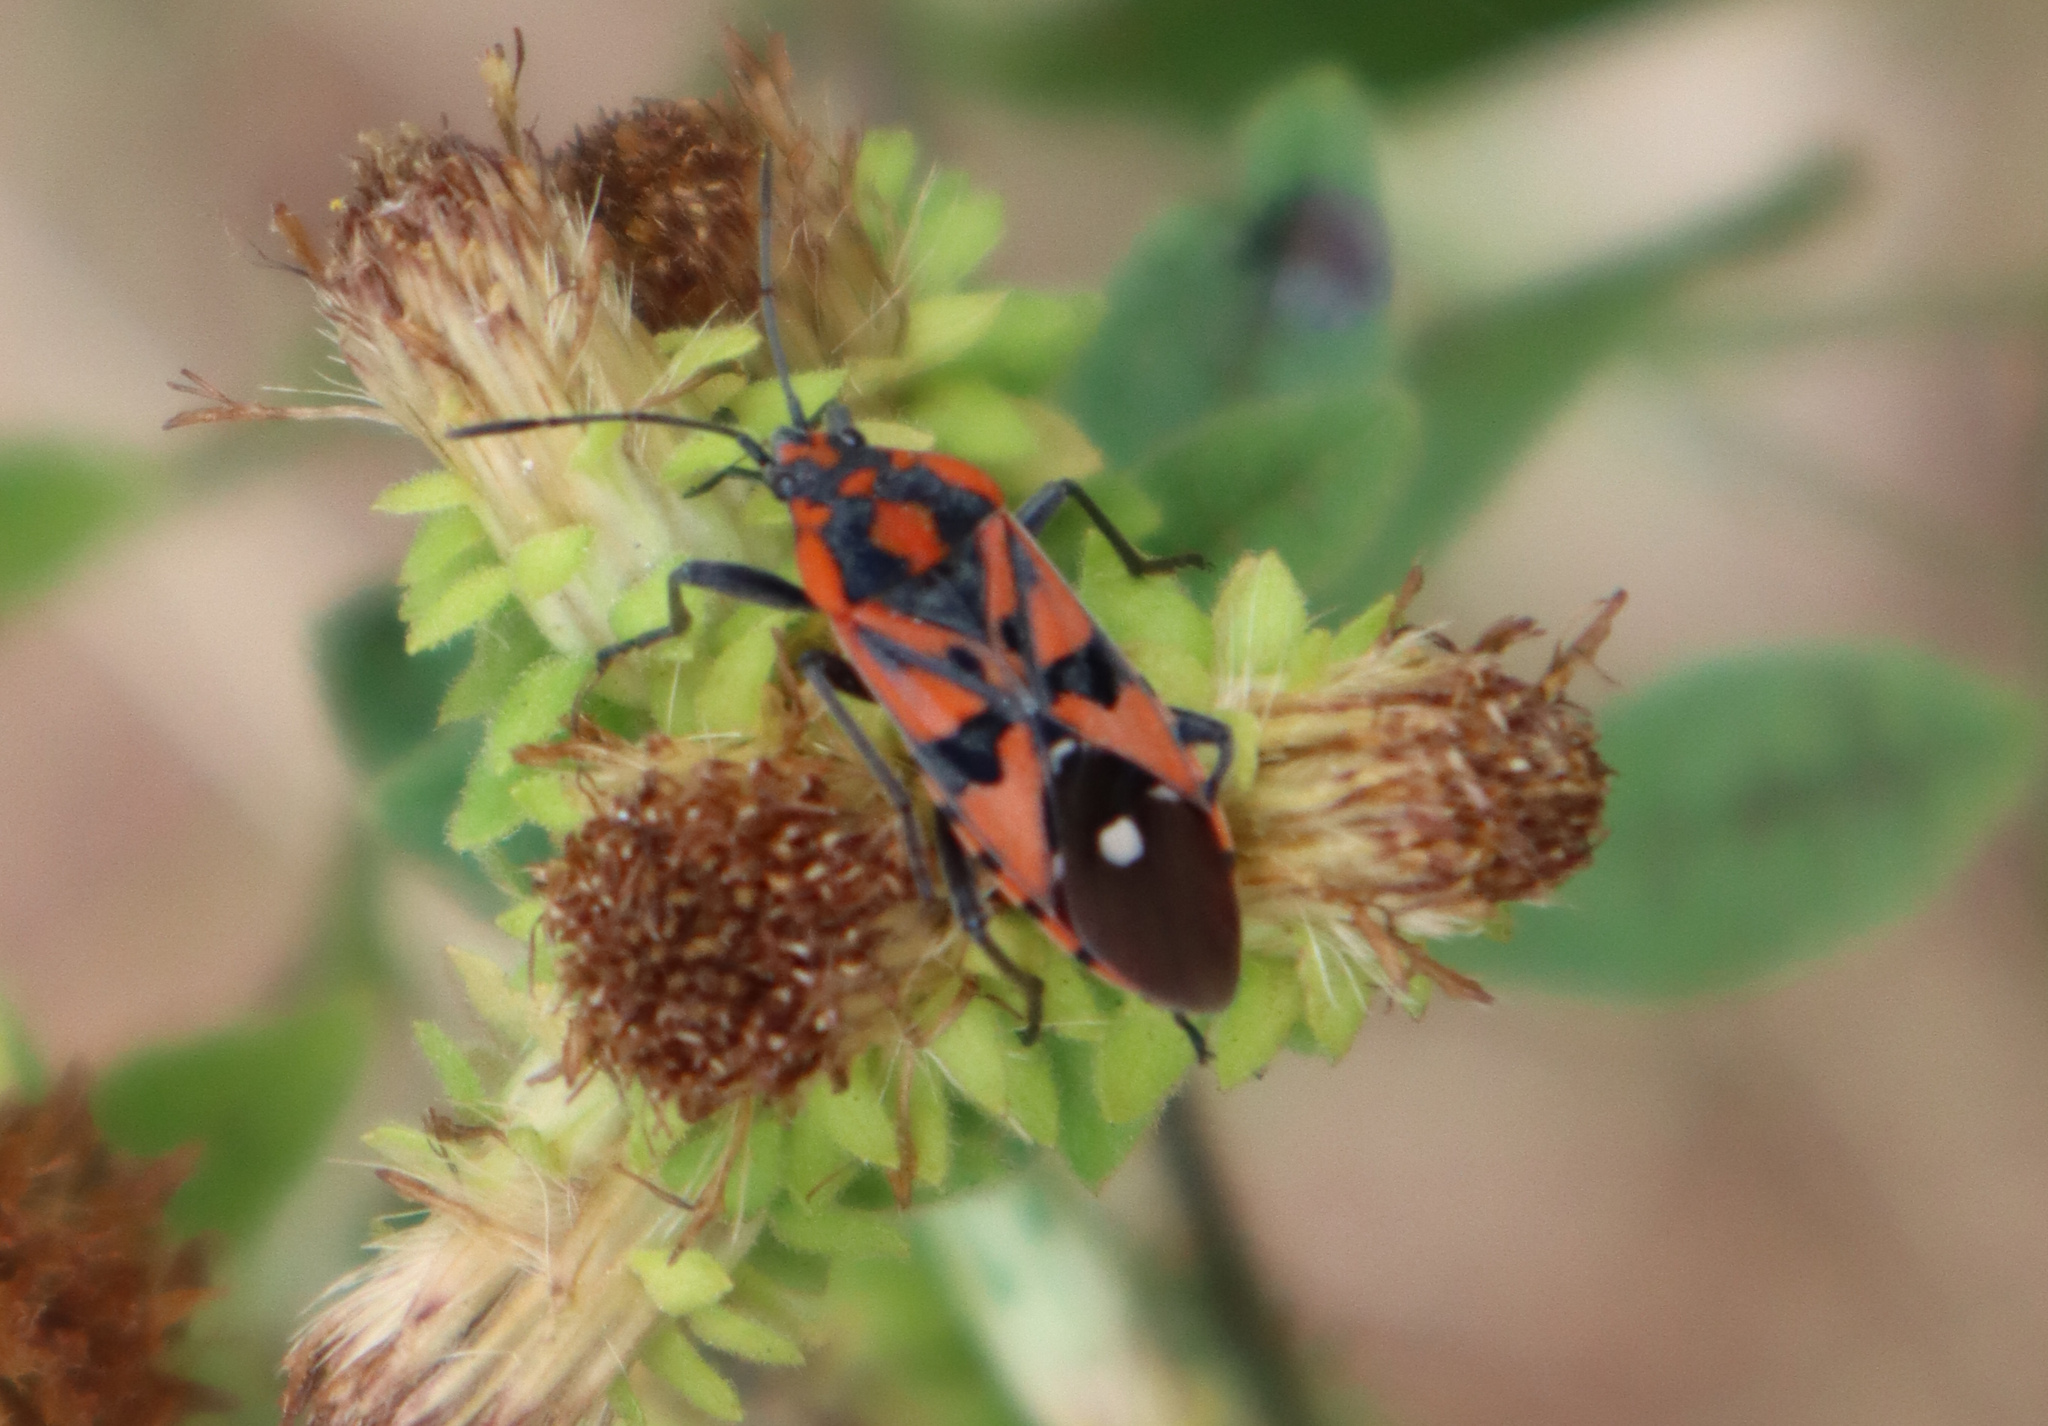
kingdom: Animalia
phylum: Arthropoda
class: Insecta
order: Hemiptera
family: Lygaeidae
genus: Spilostethus
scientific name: Spilostethus pandurus
